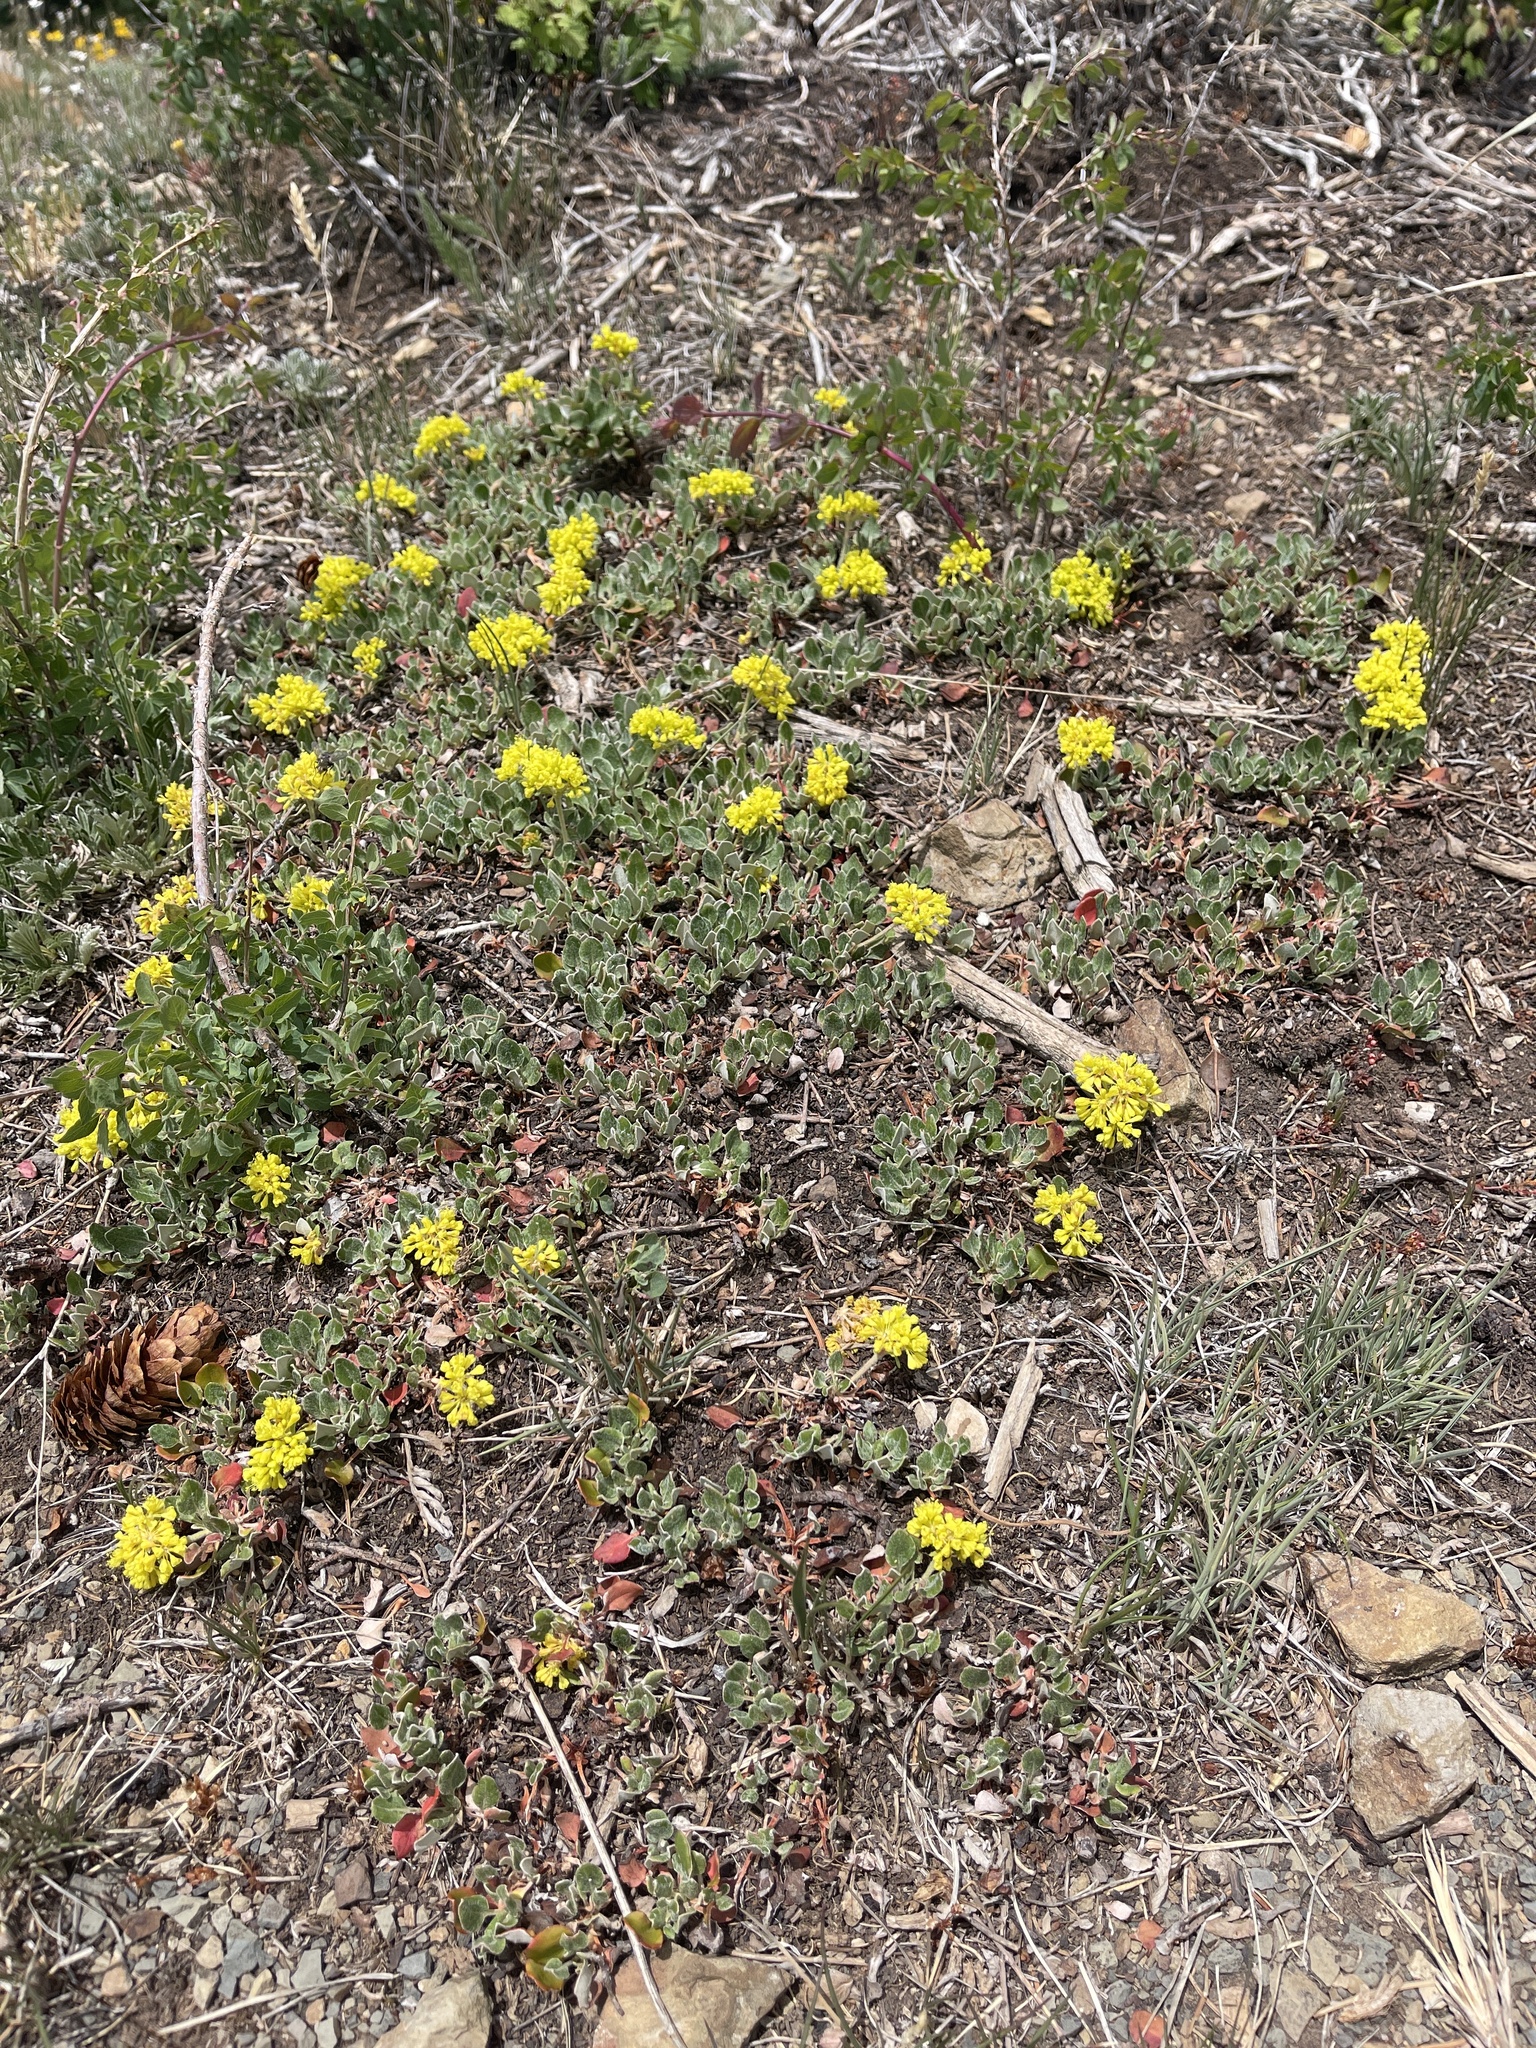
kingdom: Plantae
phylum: Tracheophyta
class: Magnoliopsida
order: Caryophyllales
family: Polygonaceae
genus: Eriogonum
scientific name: Eriogonum umbellatum
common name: Sulfur-buckwheat
